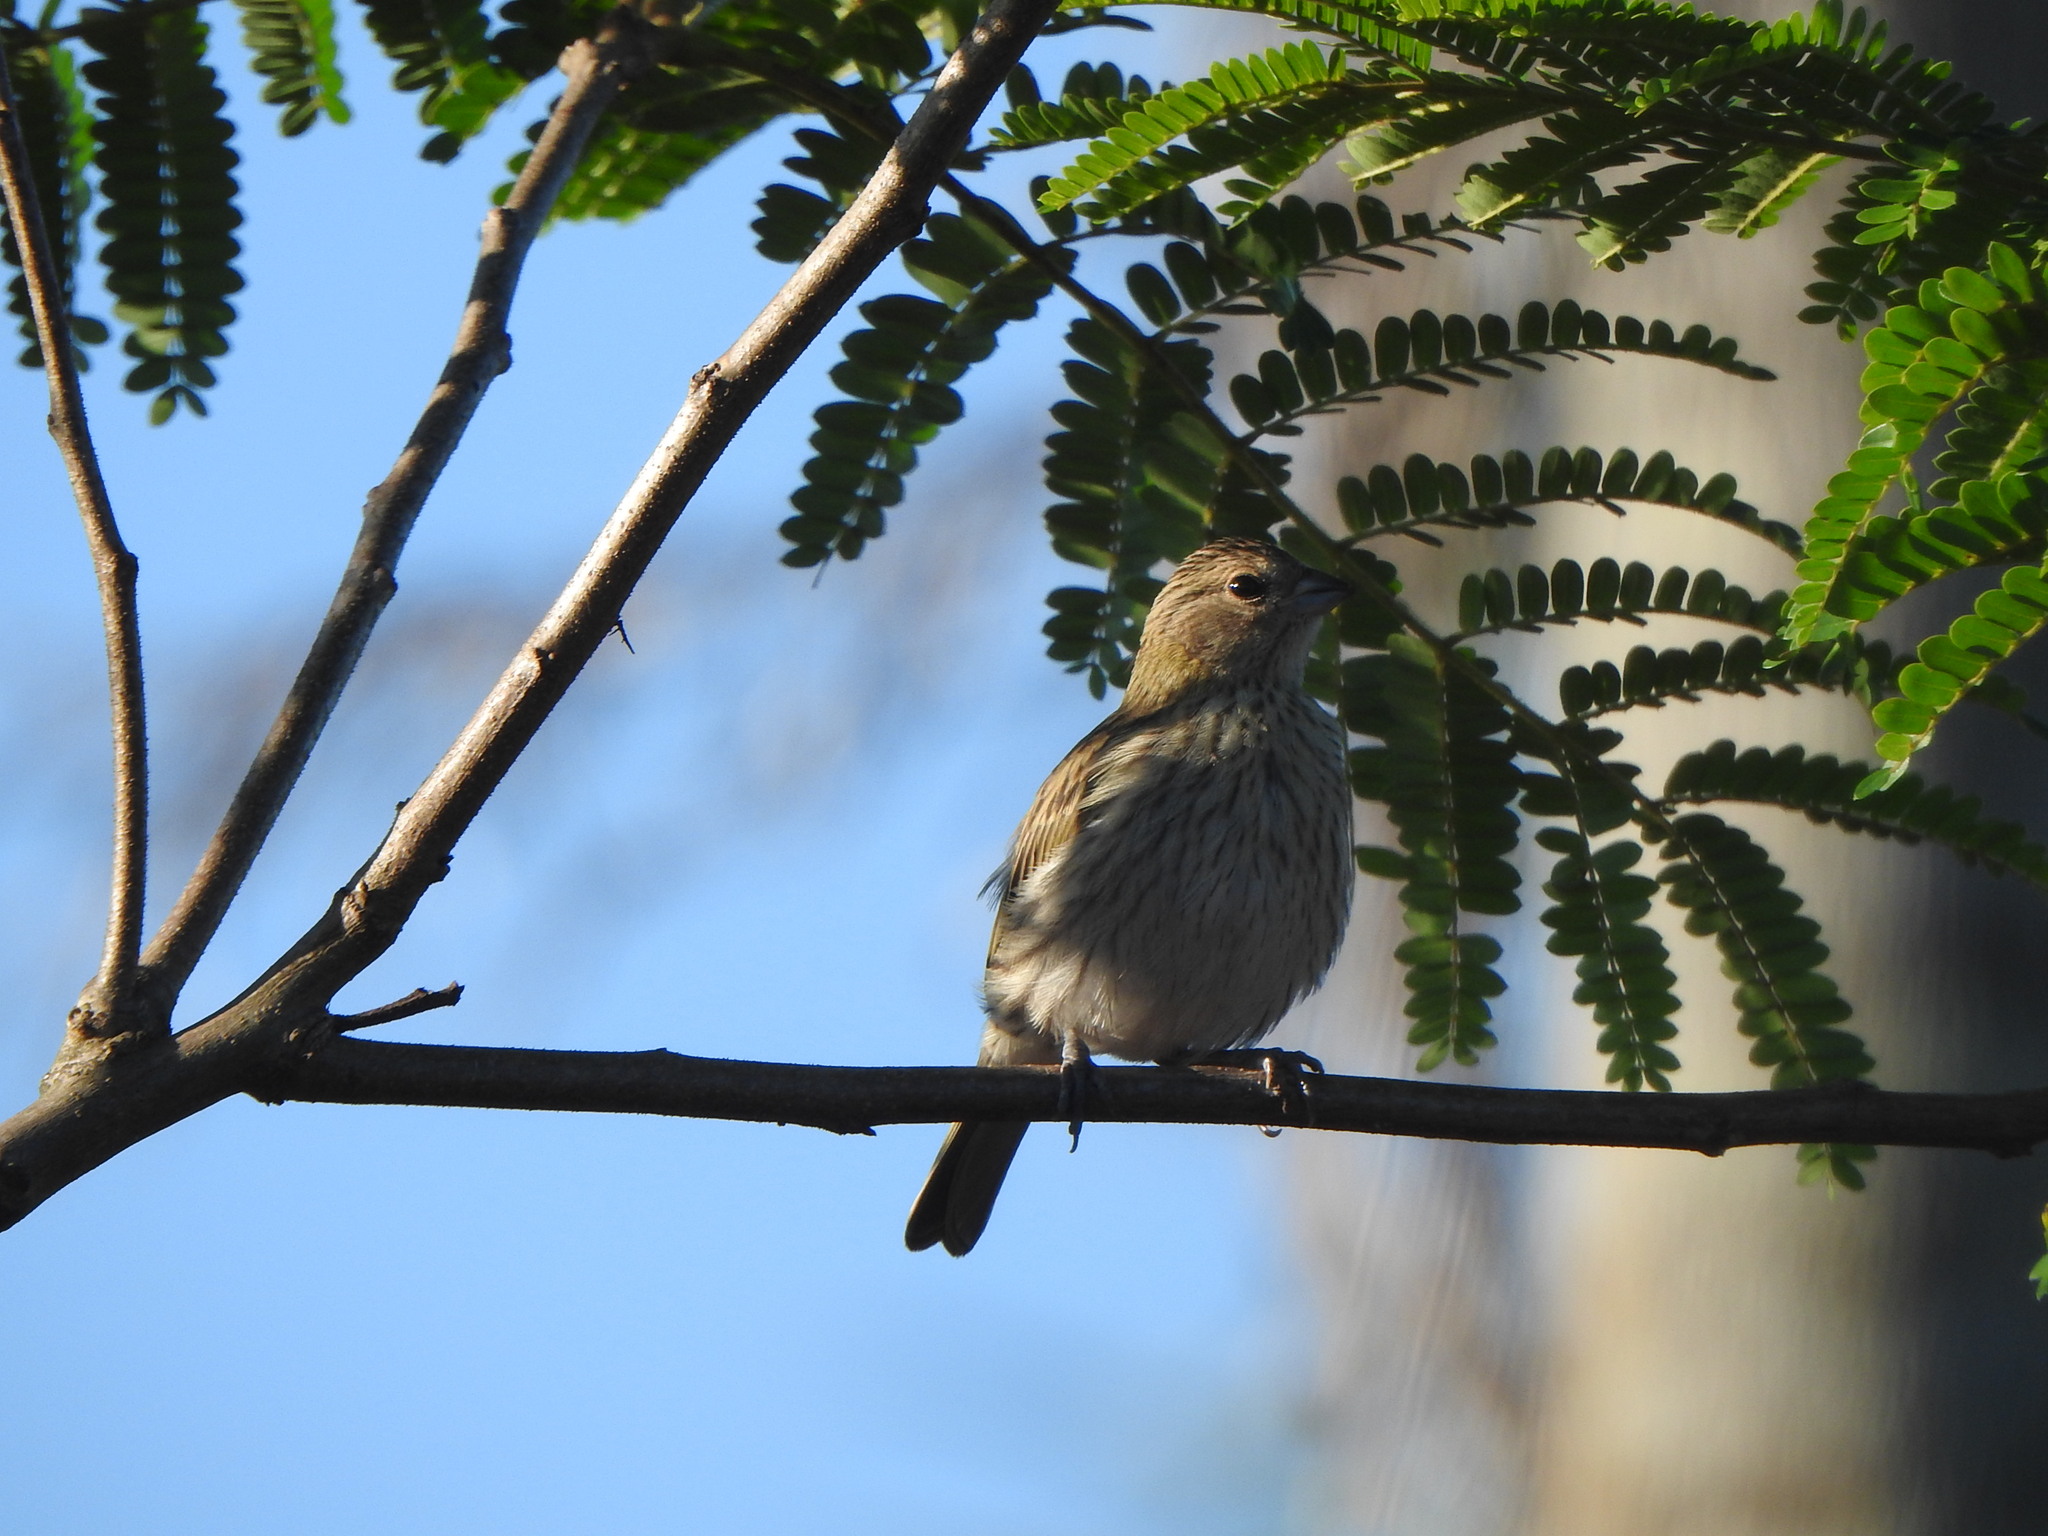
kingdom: Animalia
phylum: Chordata
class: Aves
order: Passeriformes
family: Thraupidae
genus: Sicalis
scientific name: Sicalis flaveola
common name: Saffron finch
